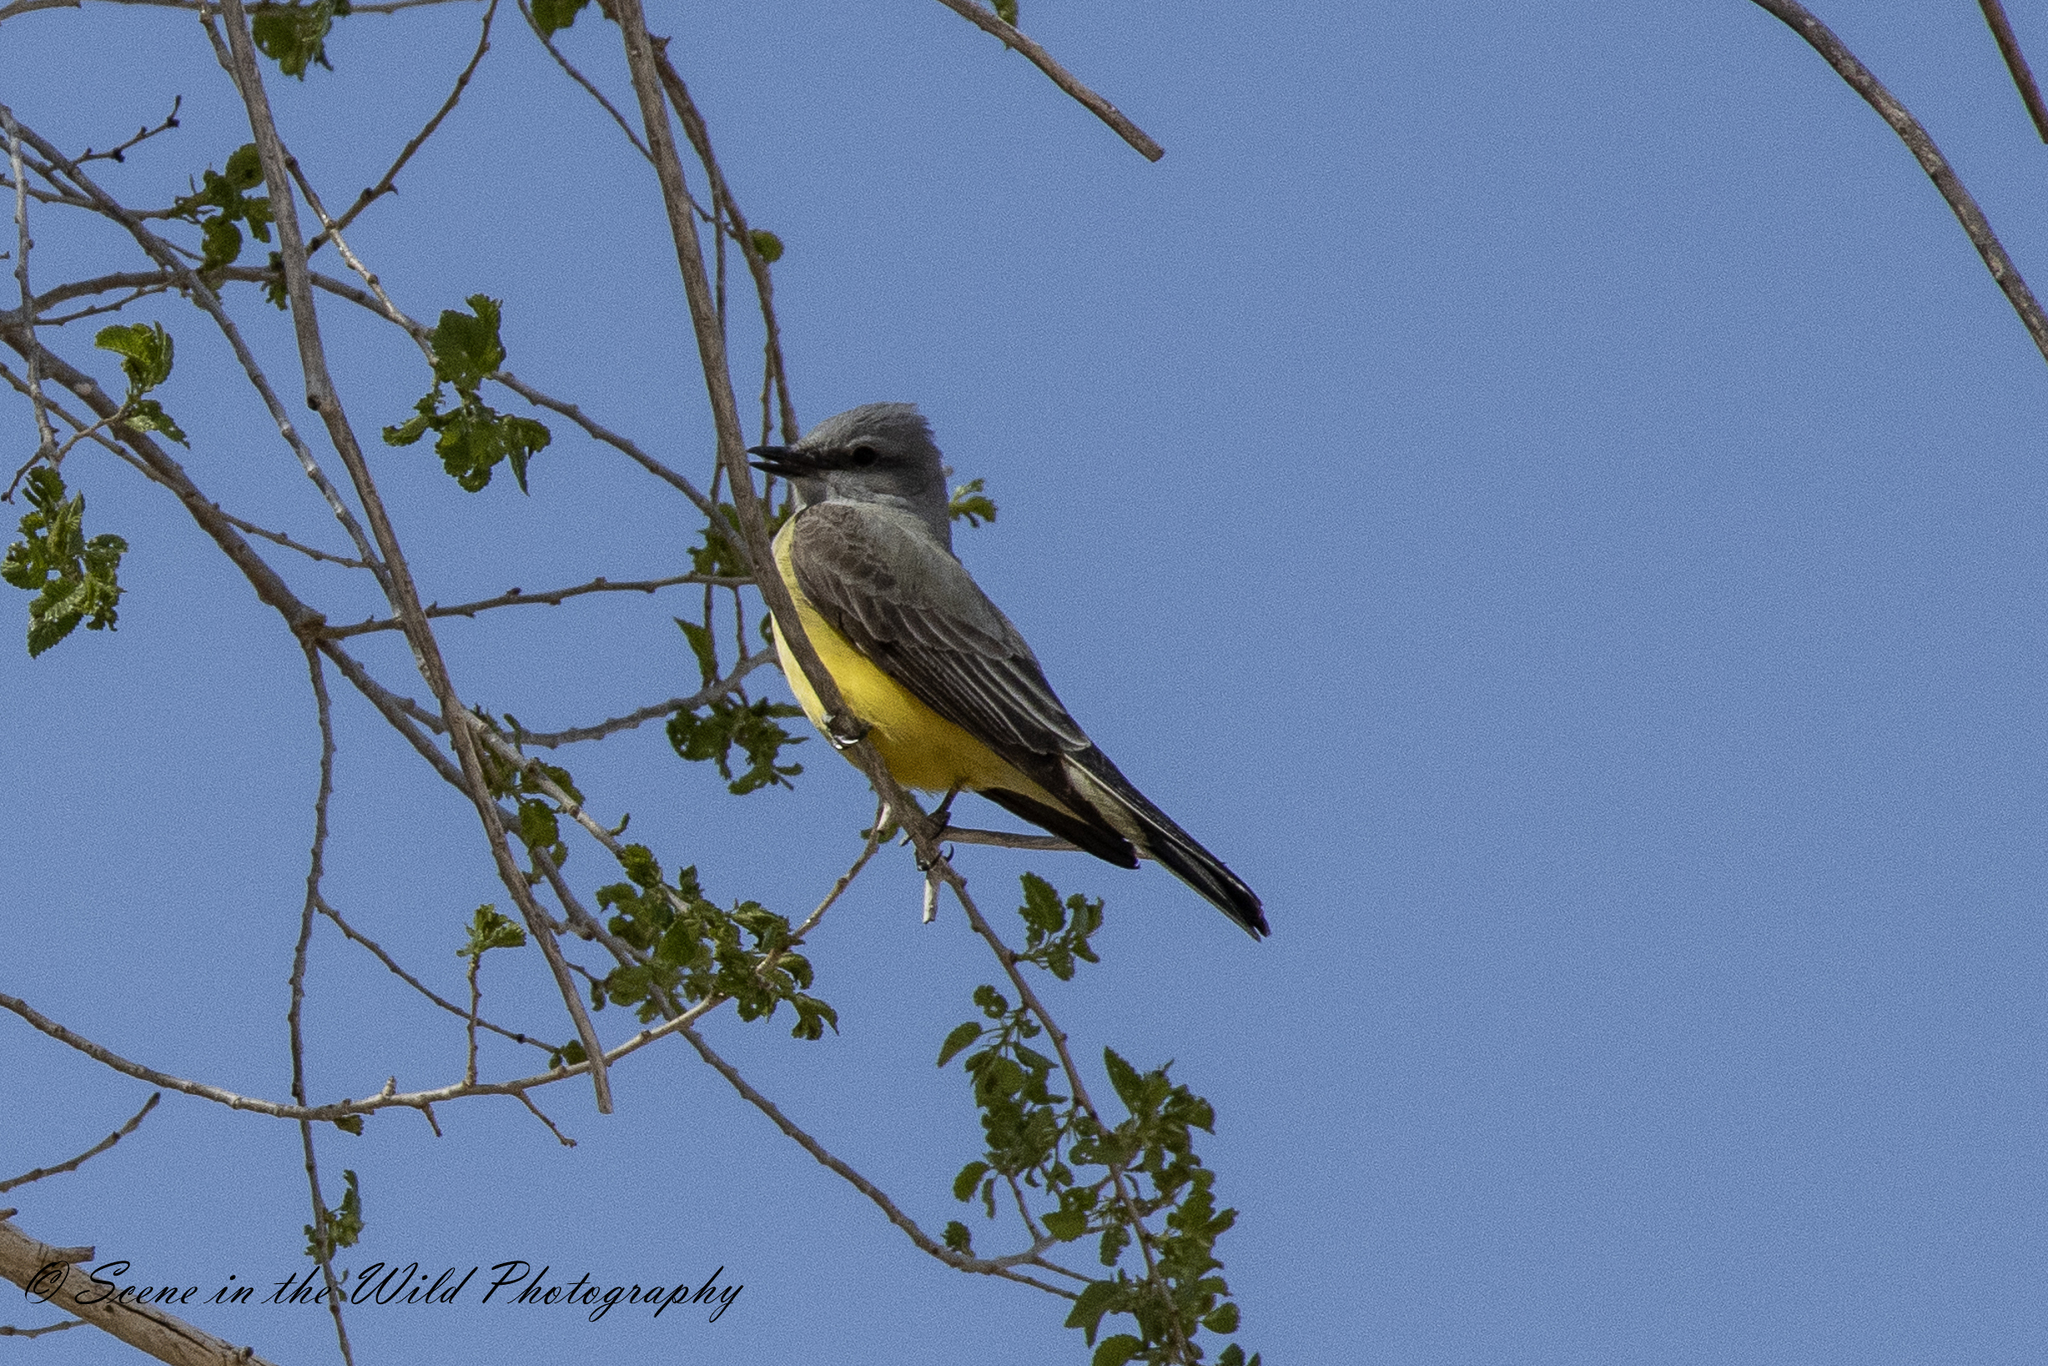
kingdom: Animalia
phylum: Chordata
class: Aves
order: Passeriformes
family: Tyrannidae
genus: Tyrannus
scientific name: Tyrannus verticalis
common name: Western kingbird
